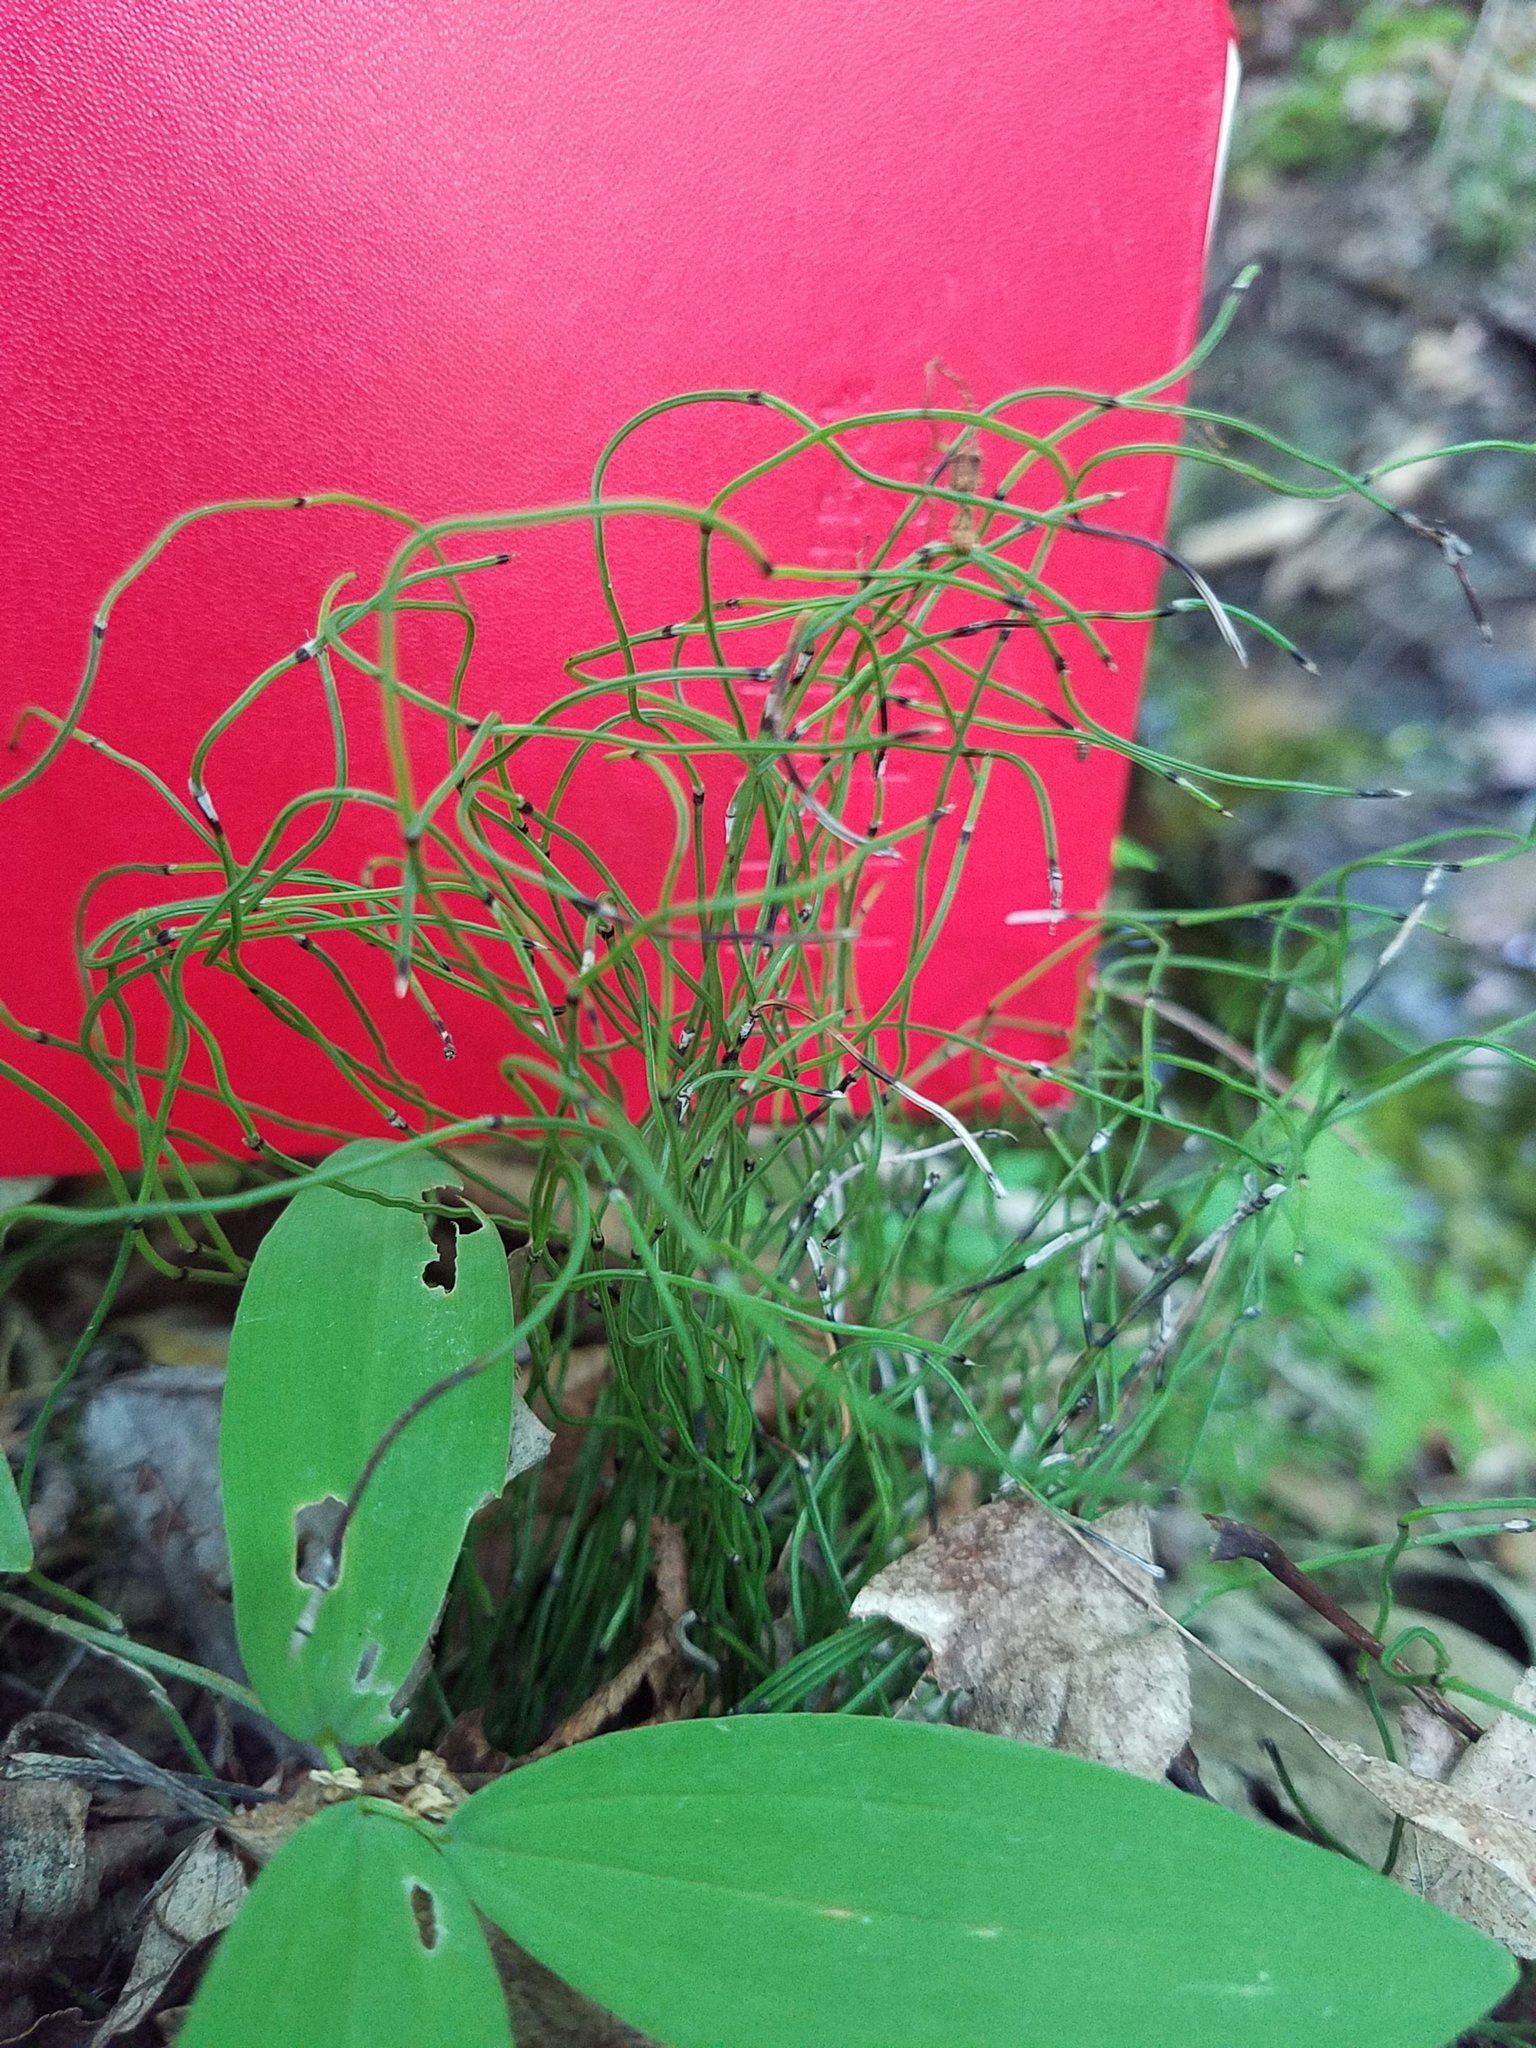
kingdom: Plantae
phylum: Tracheophyta
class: Polypodiopsida
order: Equisetales
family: Equisetaceae
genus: Equisetum
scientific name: Equisetum scirpoides
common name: Delicate horsetail
